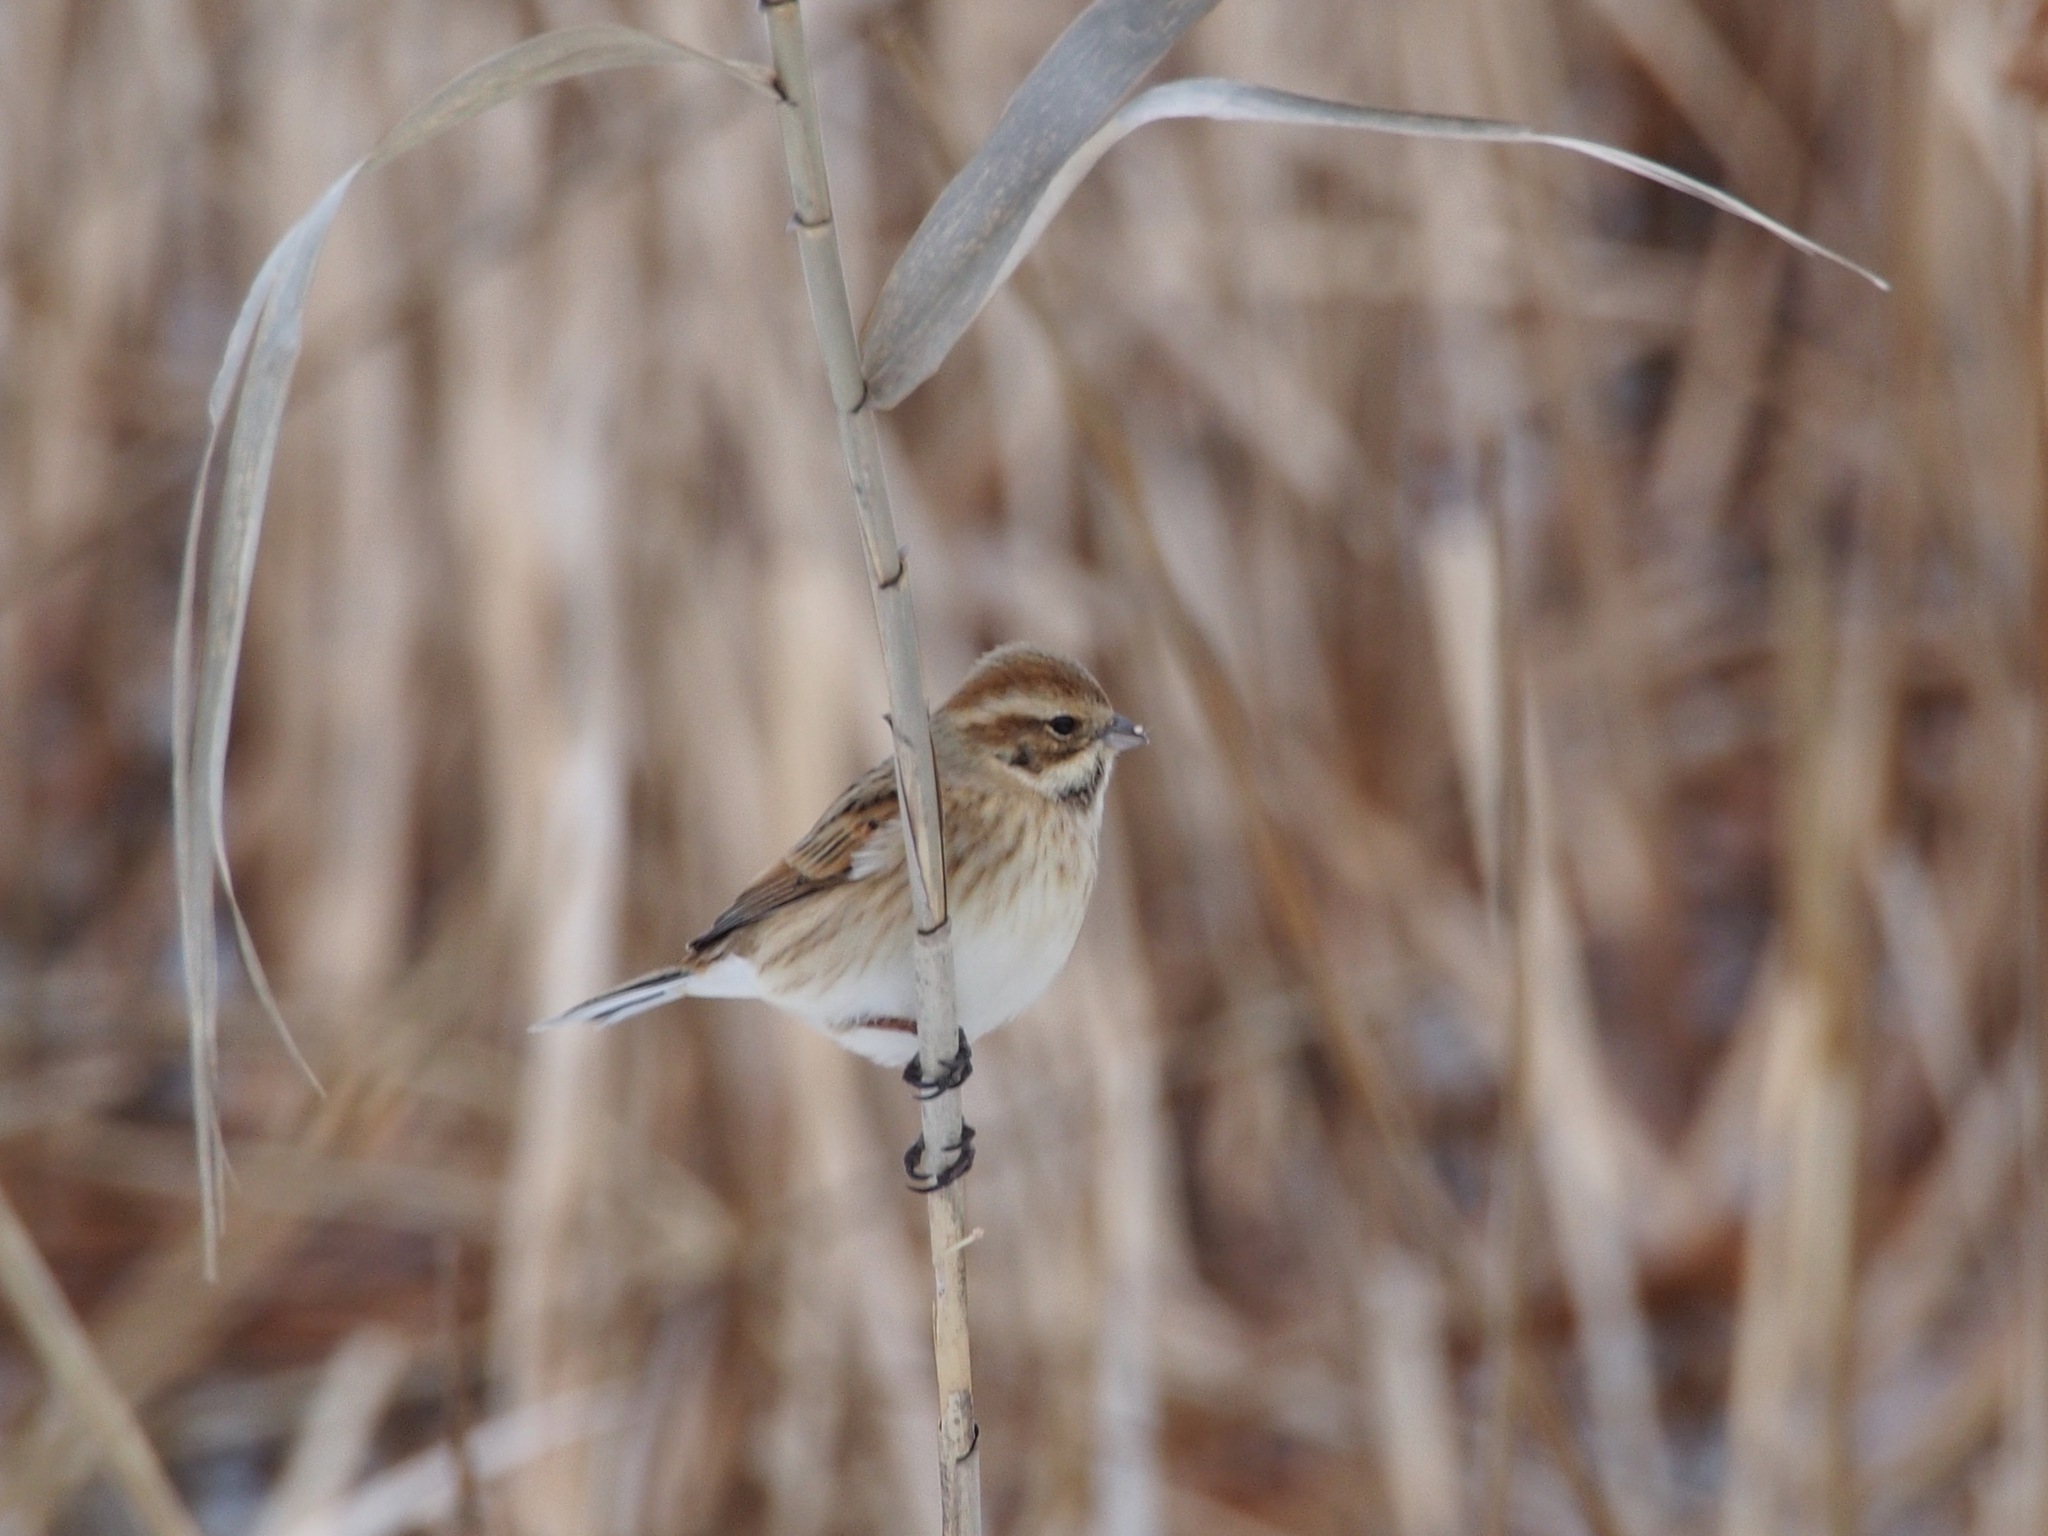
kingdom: Animalia
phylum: Chordata
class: Aves
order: Passeriformes
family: Emberizidae
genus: Emberiza
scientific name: Emberiza schoeniclus
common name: Reed bunting
